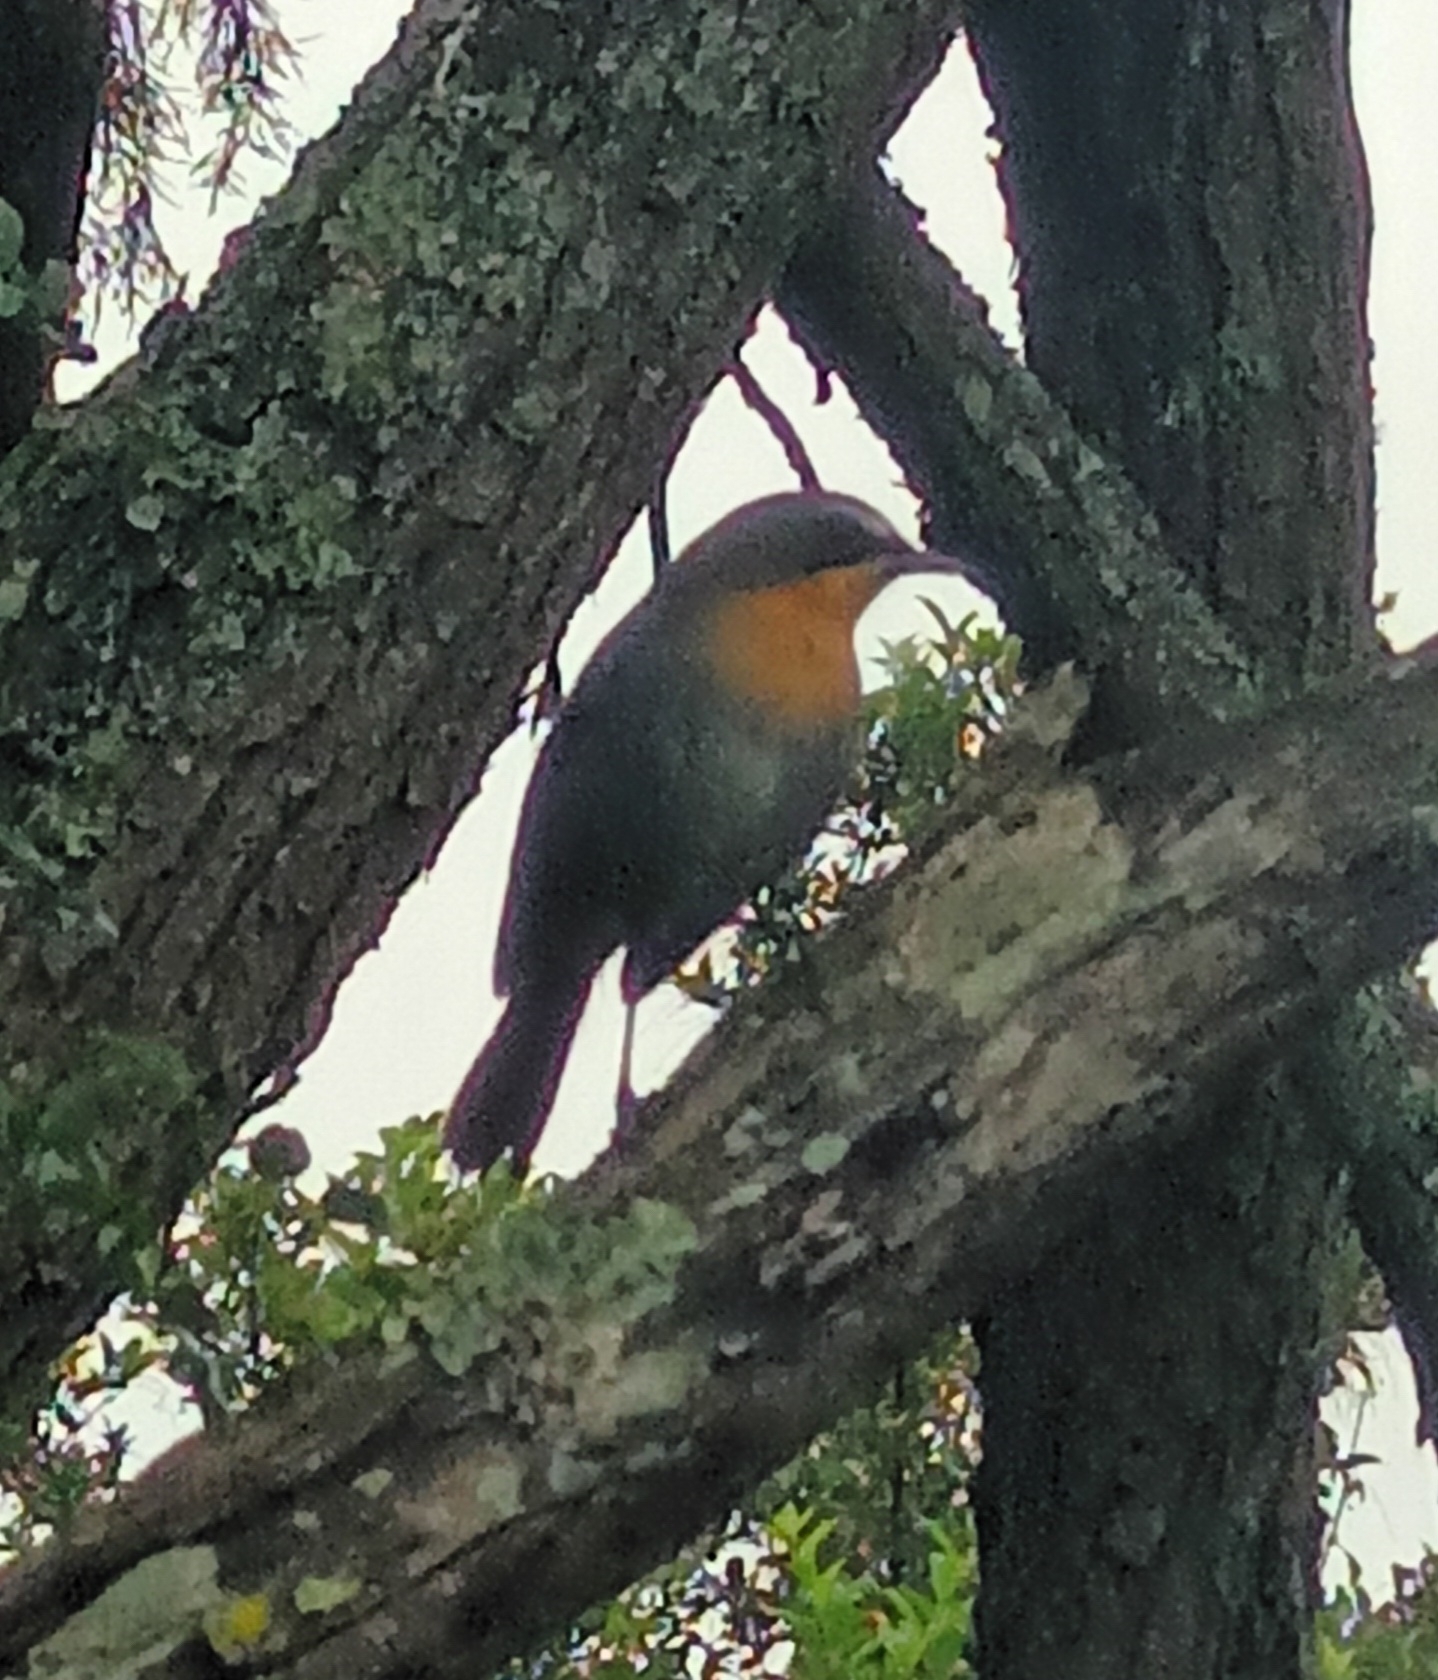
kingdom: Animalia
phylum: Chordata
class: Aves
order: Passeriformes
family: Muscicapidae
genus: Cossypha
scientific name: Cossypha caffra
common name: Cape robin-chat
